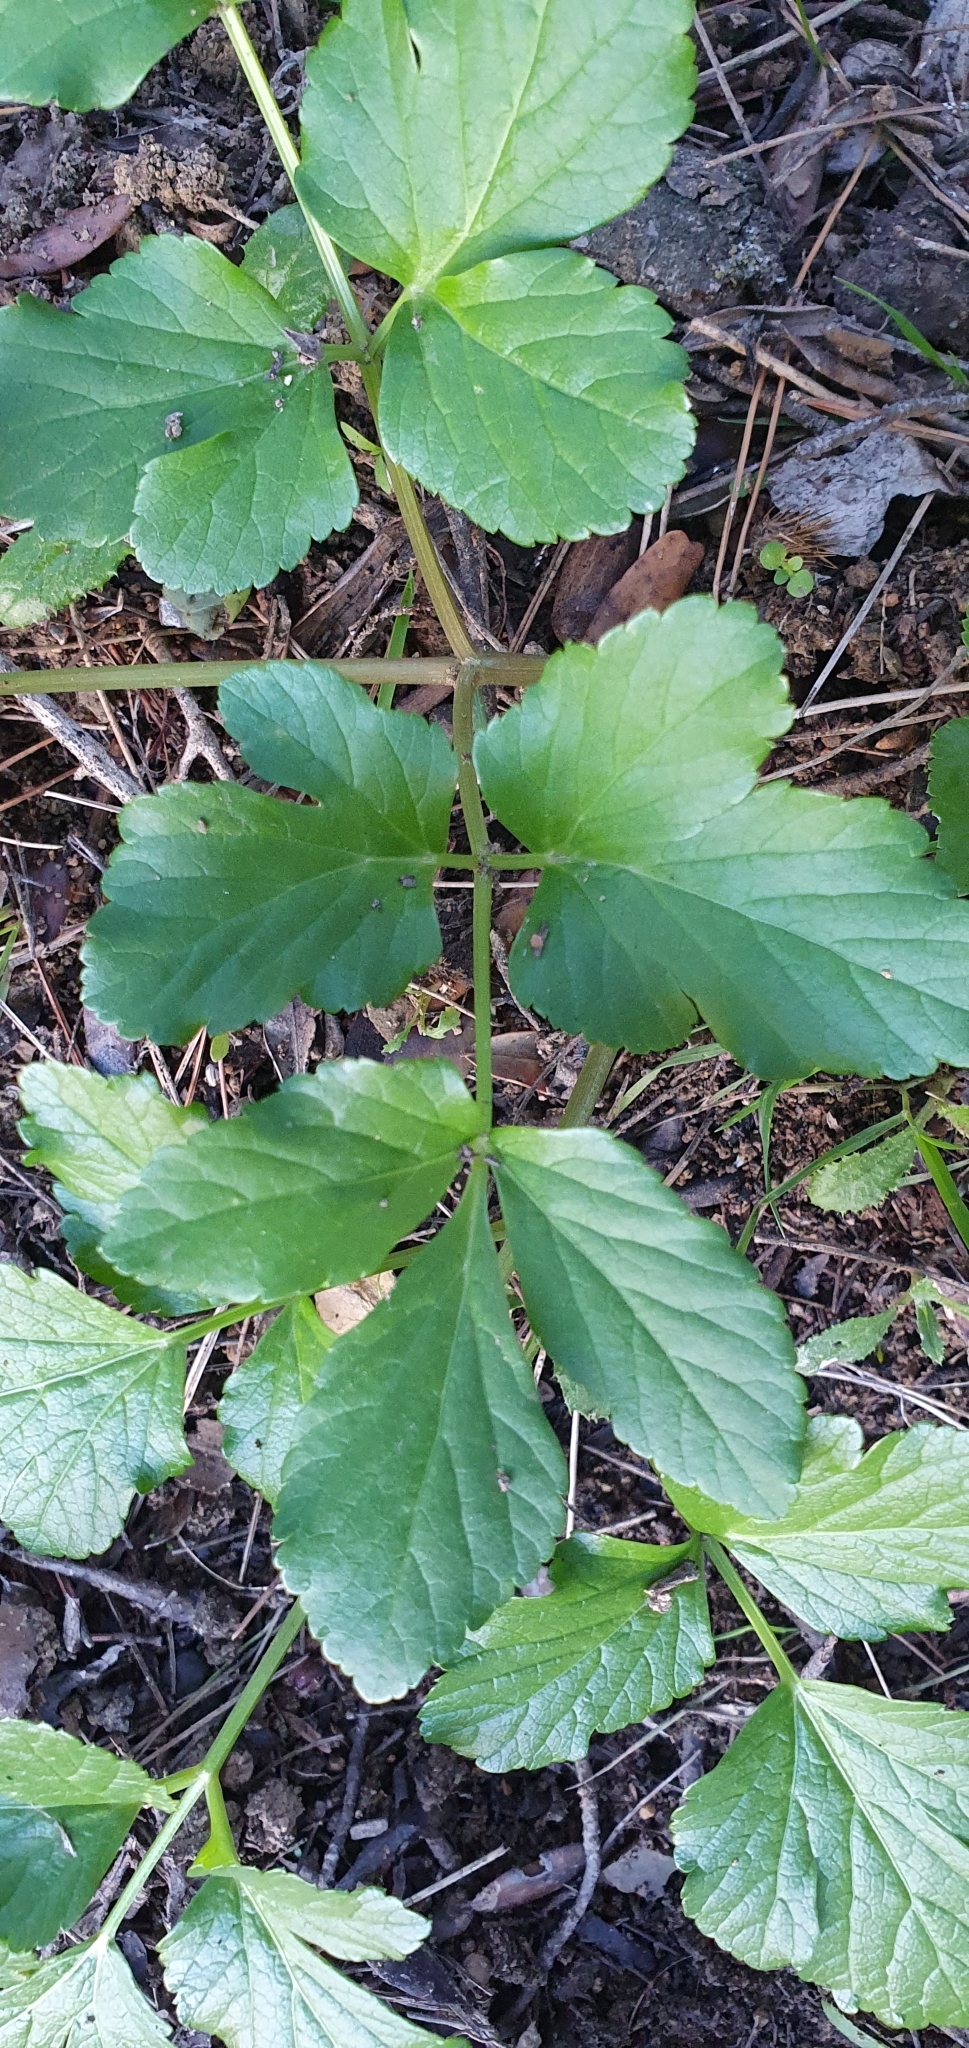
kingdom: Plantae
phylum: Tracheophyta
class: Magnoliopsida
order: Apiales
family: Apiaceae
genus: Smyrnium
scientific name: Smyrnium olusatrum
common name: Alexanders
